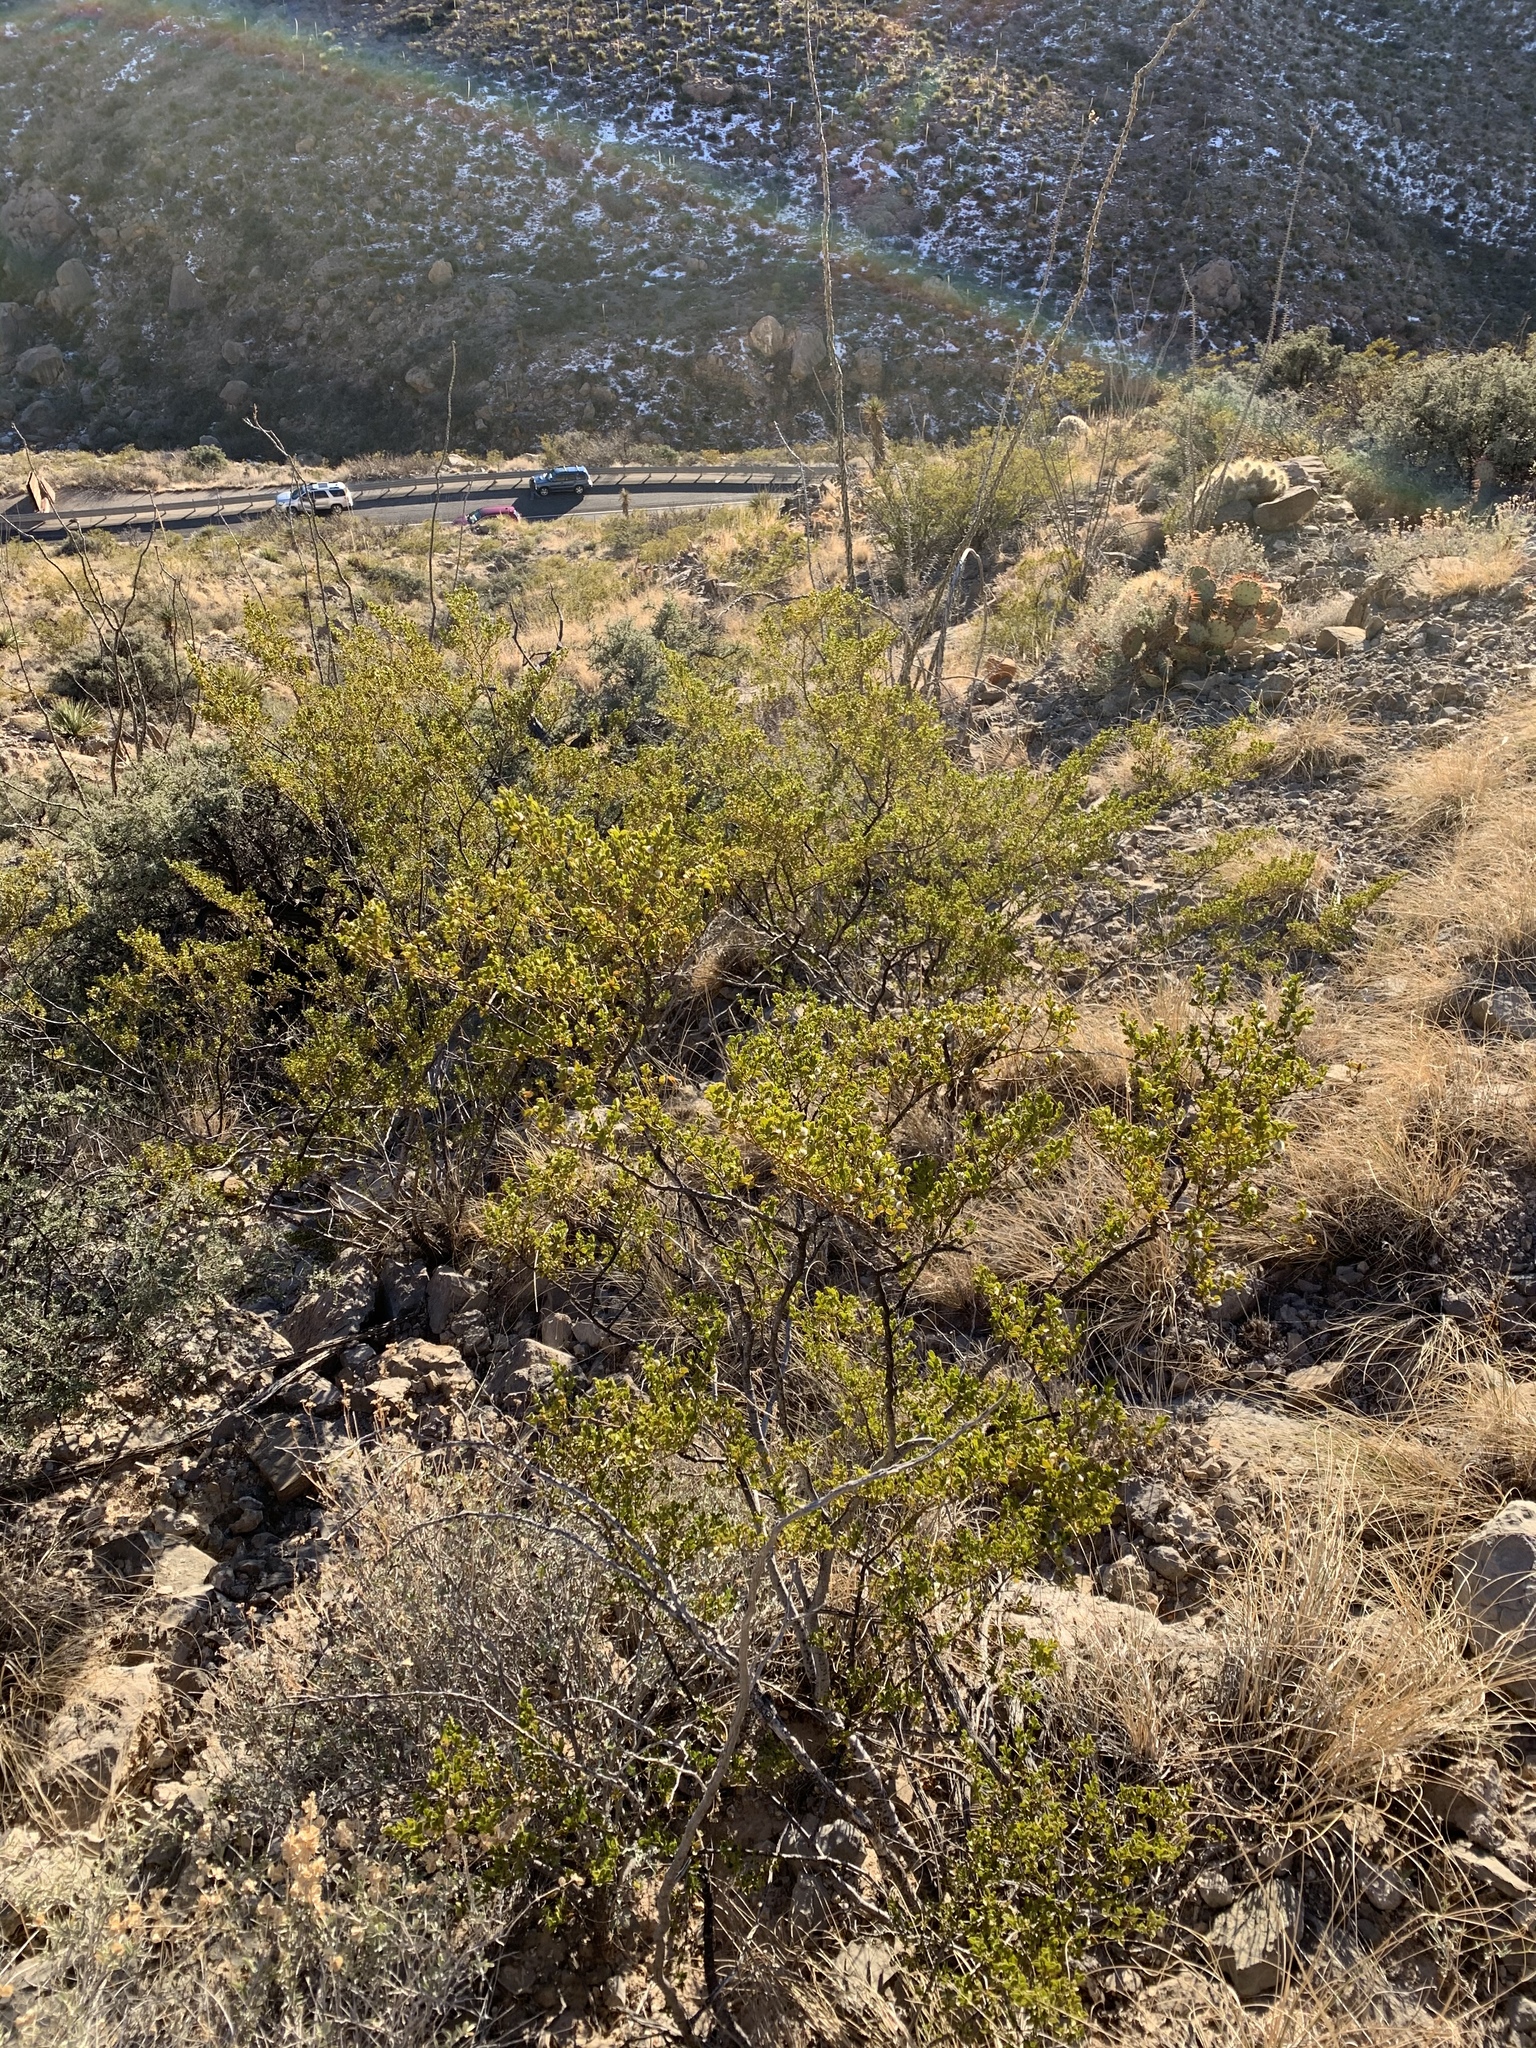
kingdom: Plantae
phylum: Tracheophyta
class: Magnoliopsida
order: Zygophyllales
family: Zygophyllaceae
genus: Larrea
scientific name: Larrea tridentata
